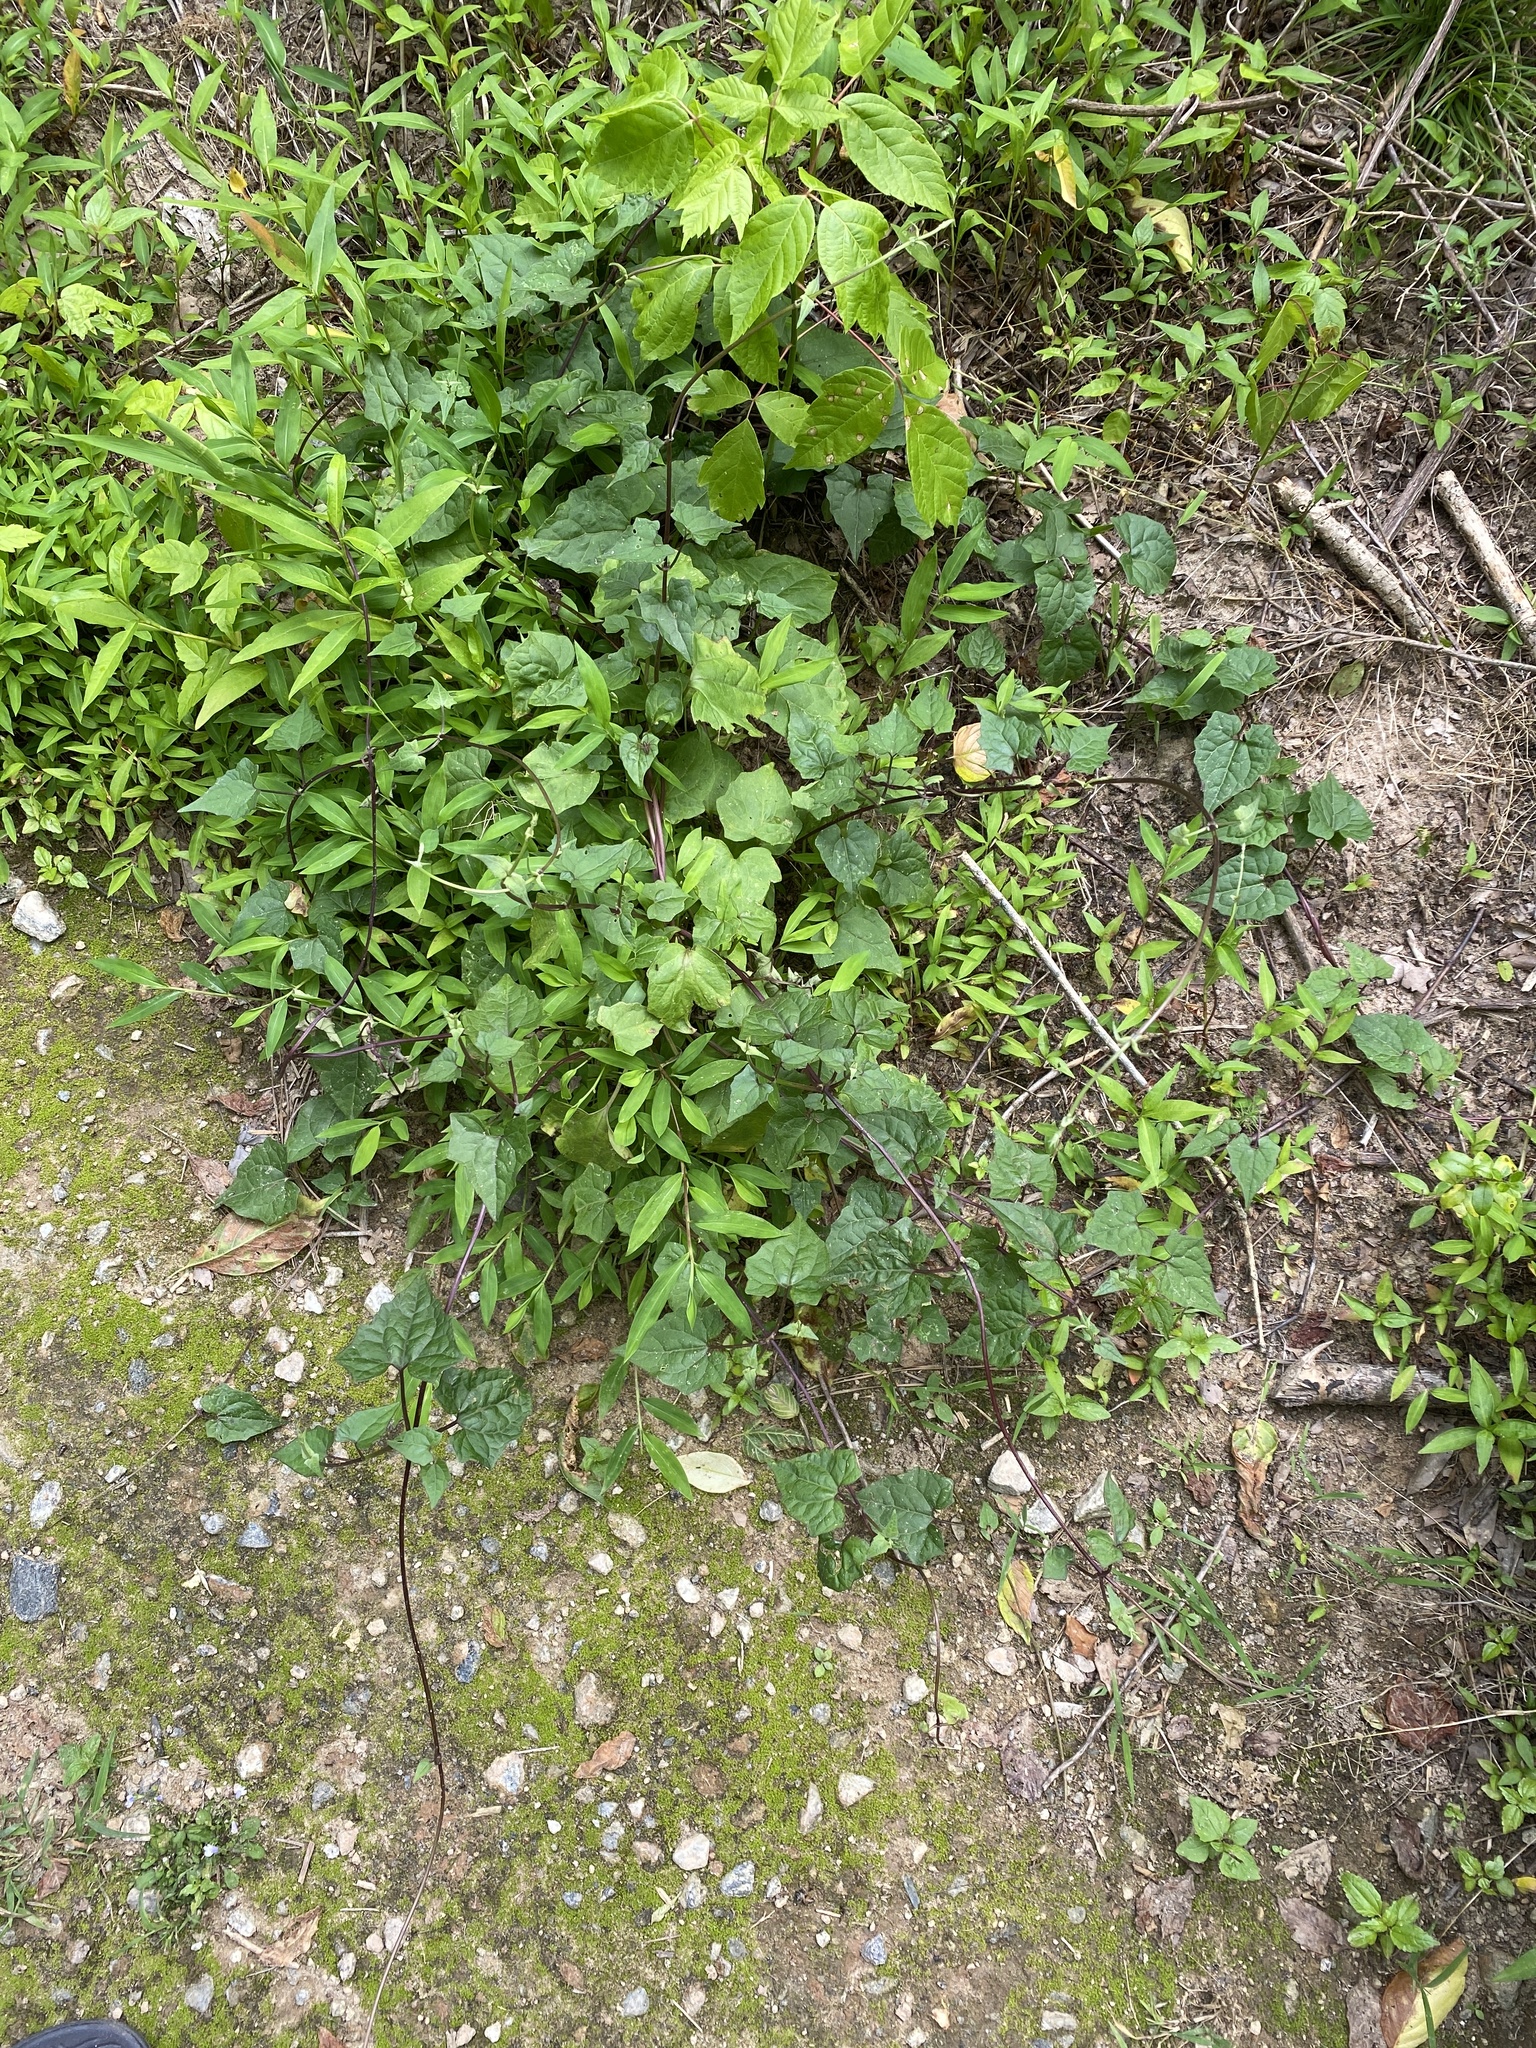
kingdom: Plantae
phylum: Tracheophyta
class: Magnoliopsida
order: Asterales
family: Asteraceae
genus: Mikania
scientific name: Mikania scandens
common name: Climbing hempvine
